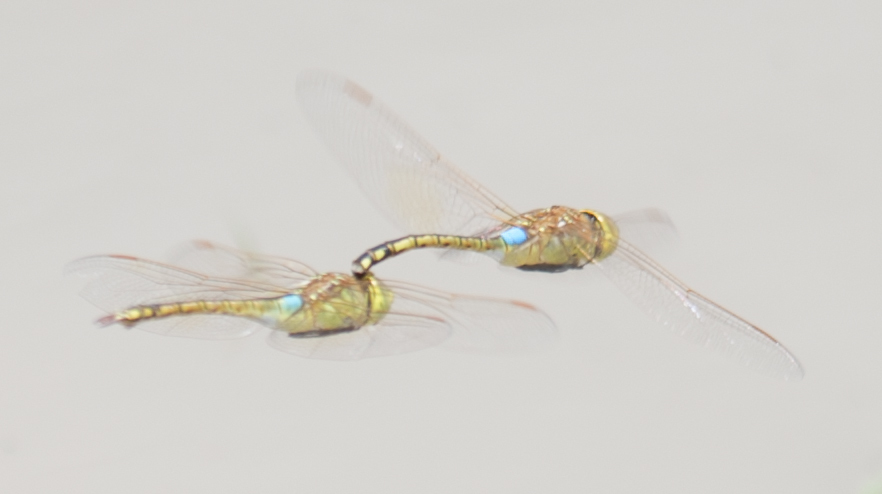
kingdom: Animalia
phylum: Arthropoda
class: Insecta
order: Odonata
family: Aeshnidae
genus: Anax
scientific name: Anax ephippiger
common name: Vagrant emperor
